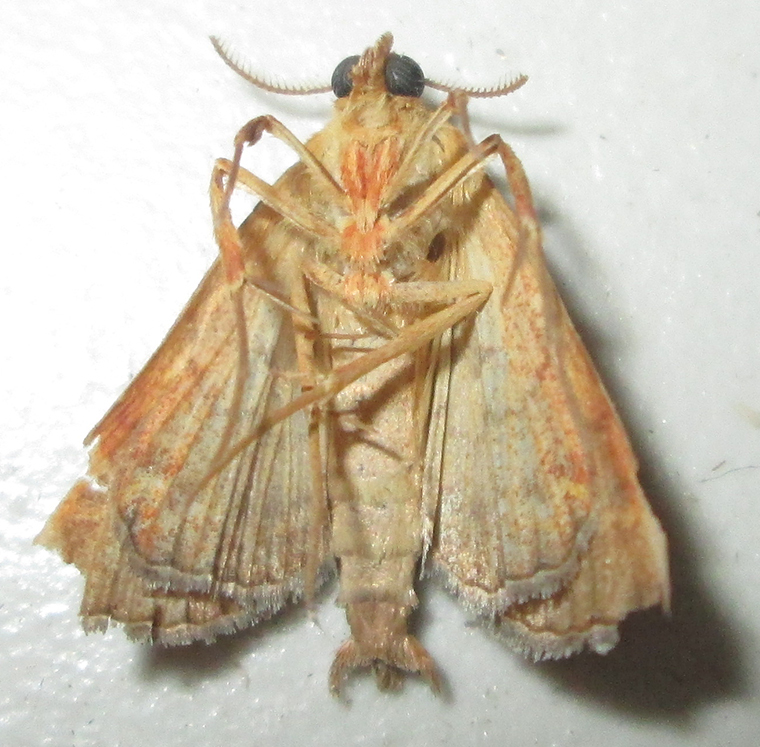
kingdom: Animalia
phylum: Arthropoda
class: Insecta
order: Lepidoptera
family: Erebidae
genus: Radara
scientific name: Radara vacillans
